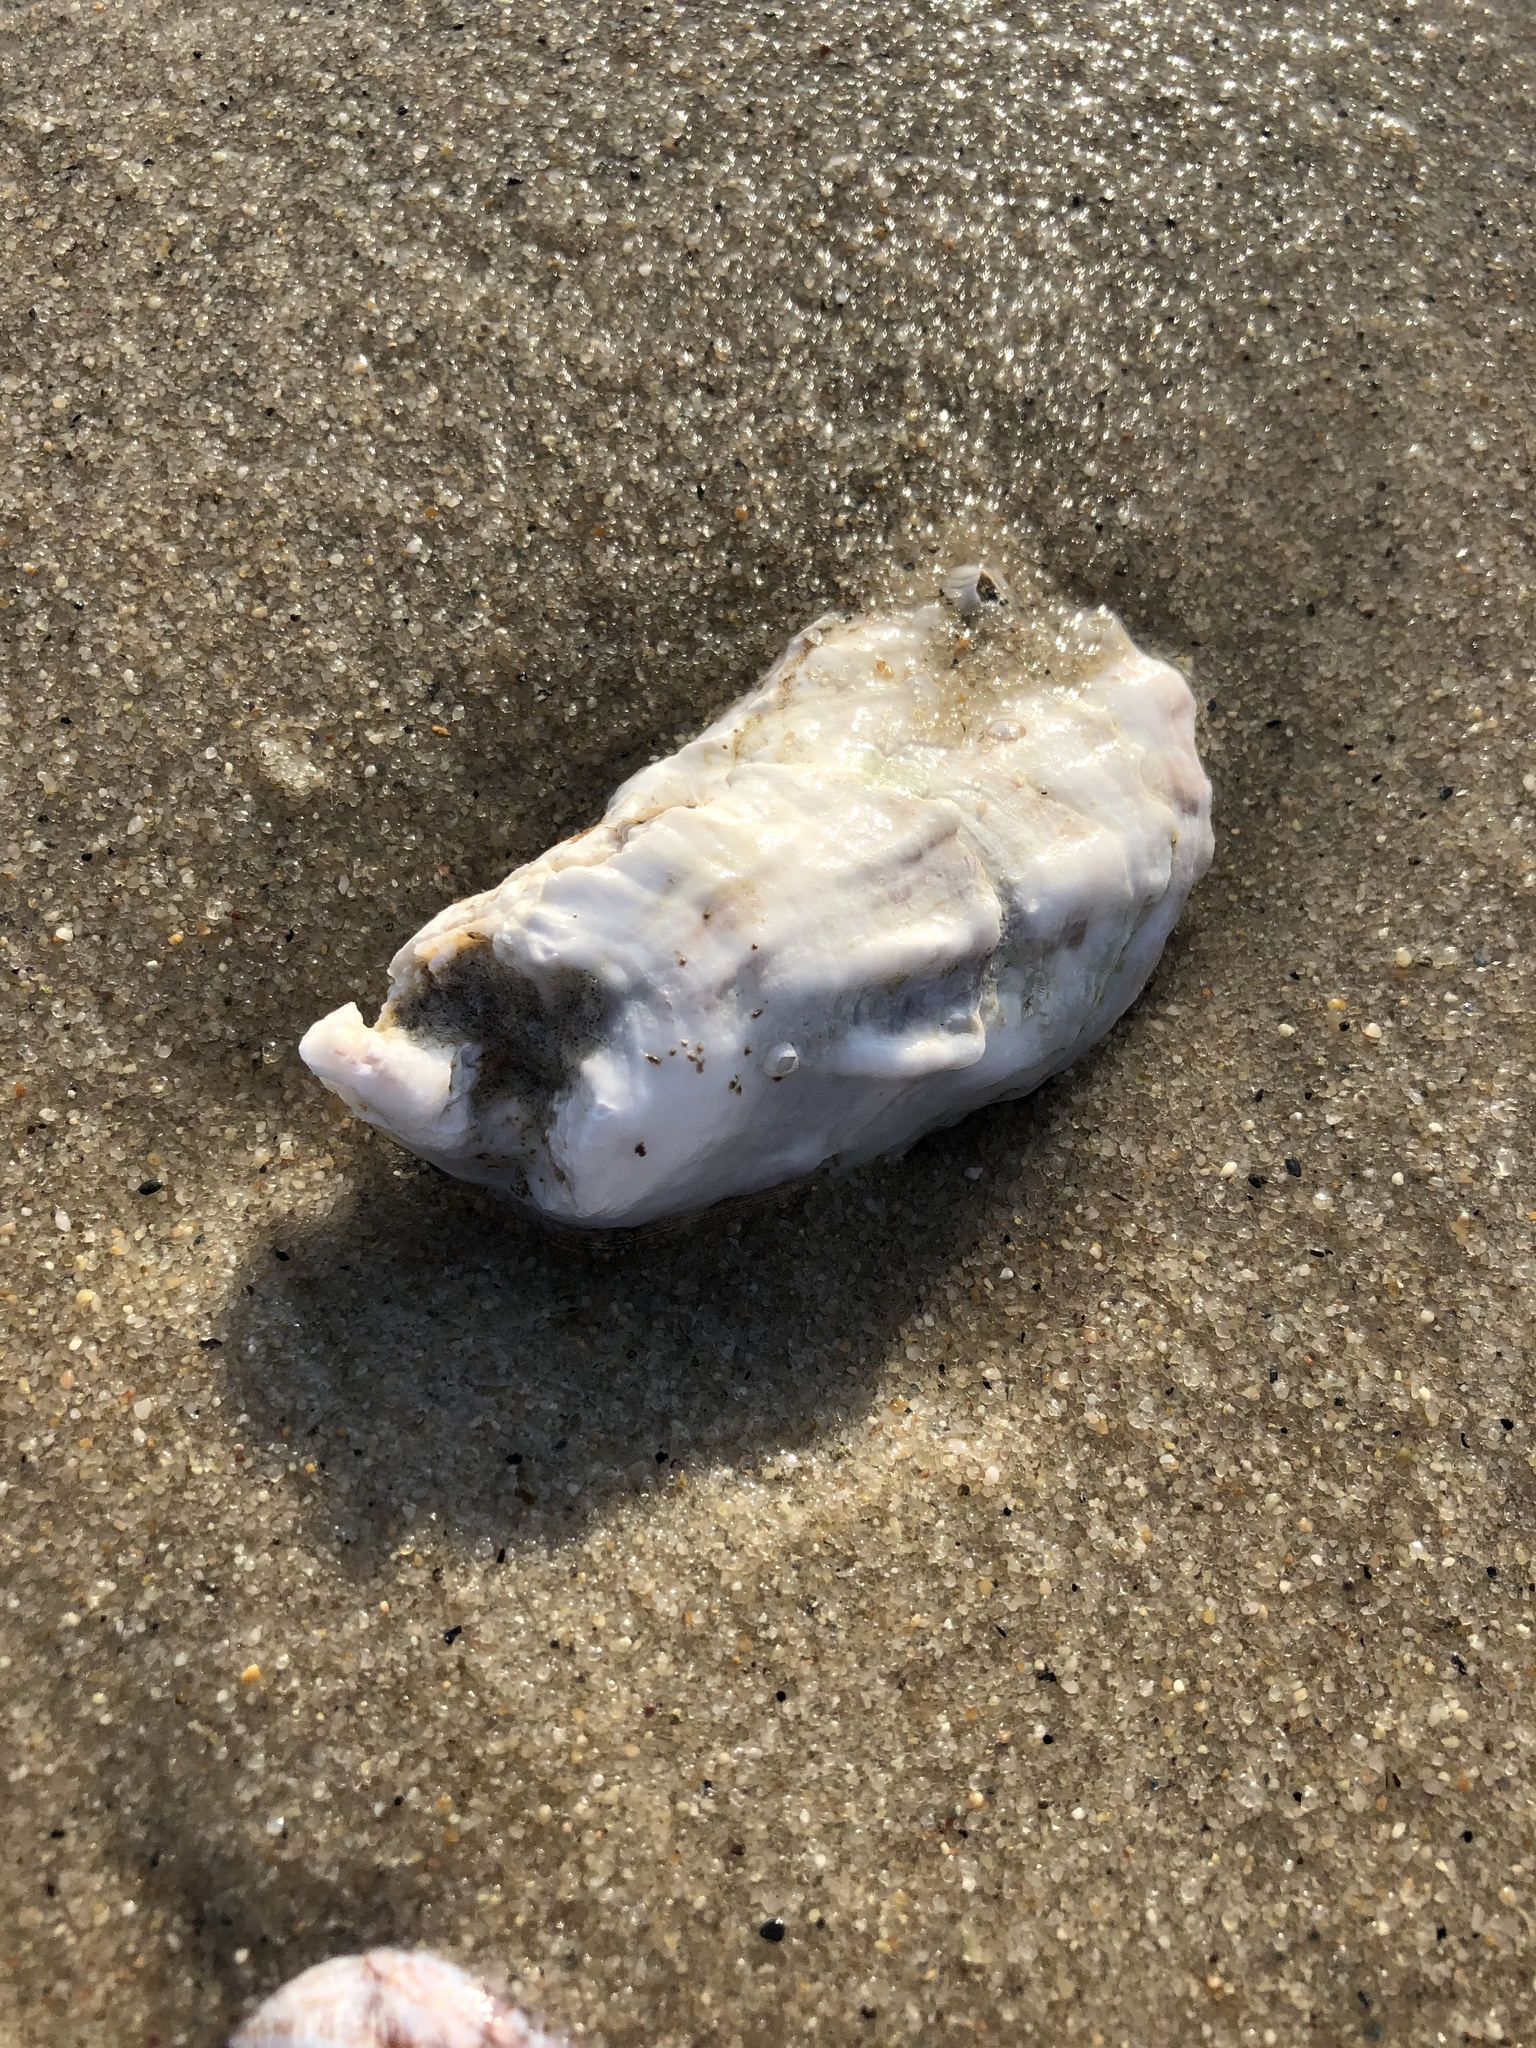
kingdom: Animalia
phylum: Mollusca
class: Bivalvia
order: Ostreida
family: Ostreidae
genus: Crassostrea
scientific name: Crassostrea virginica
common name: American oyster
